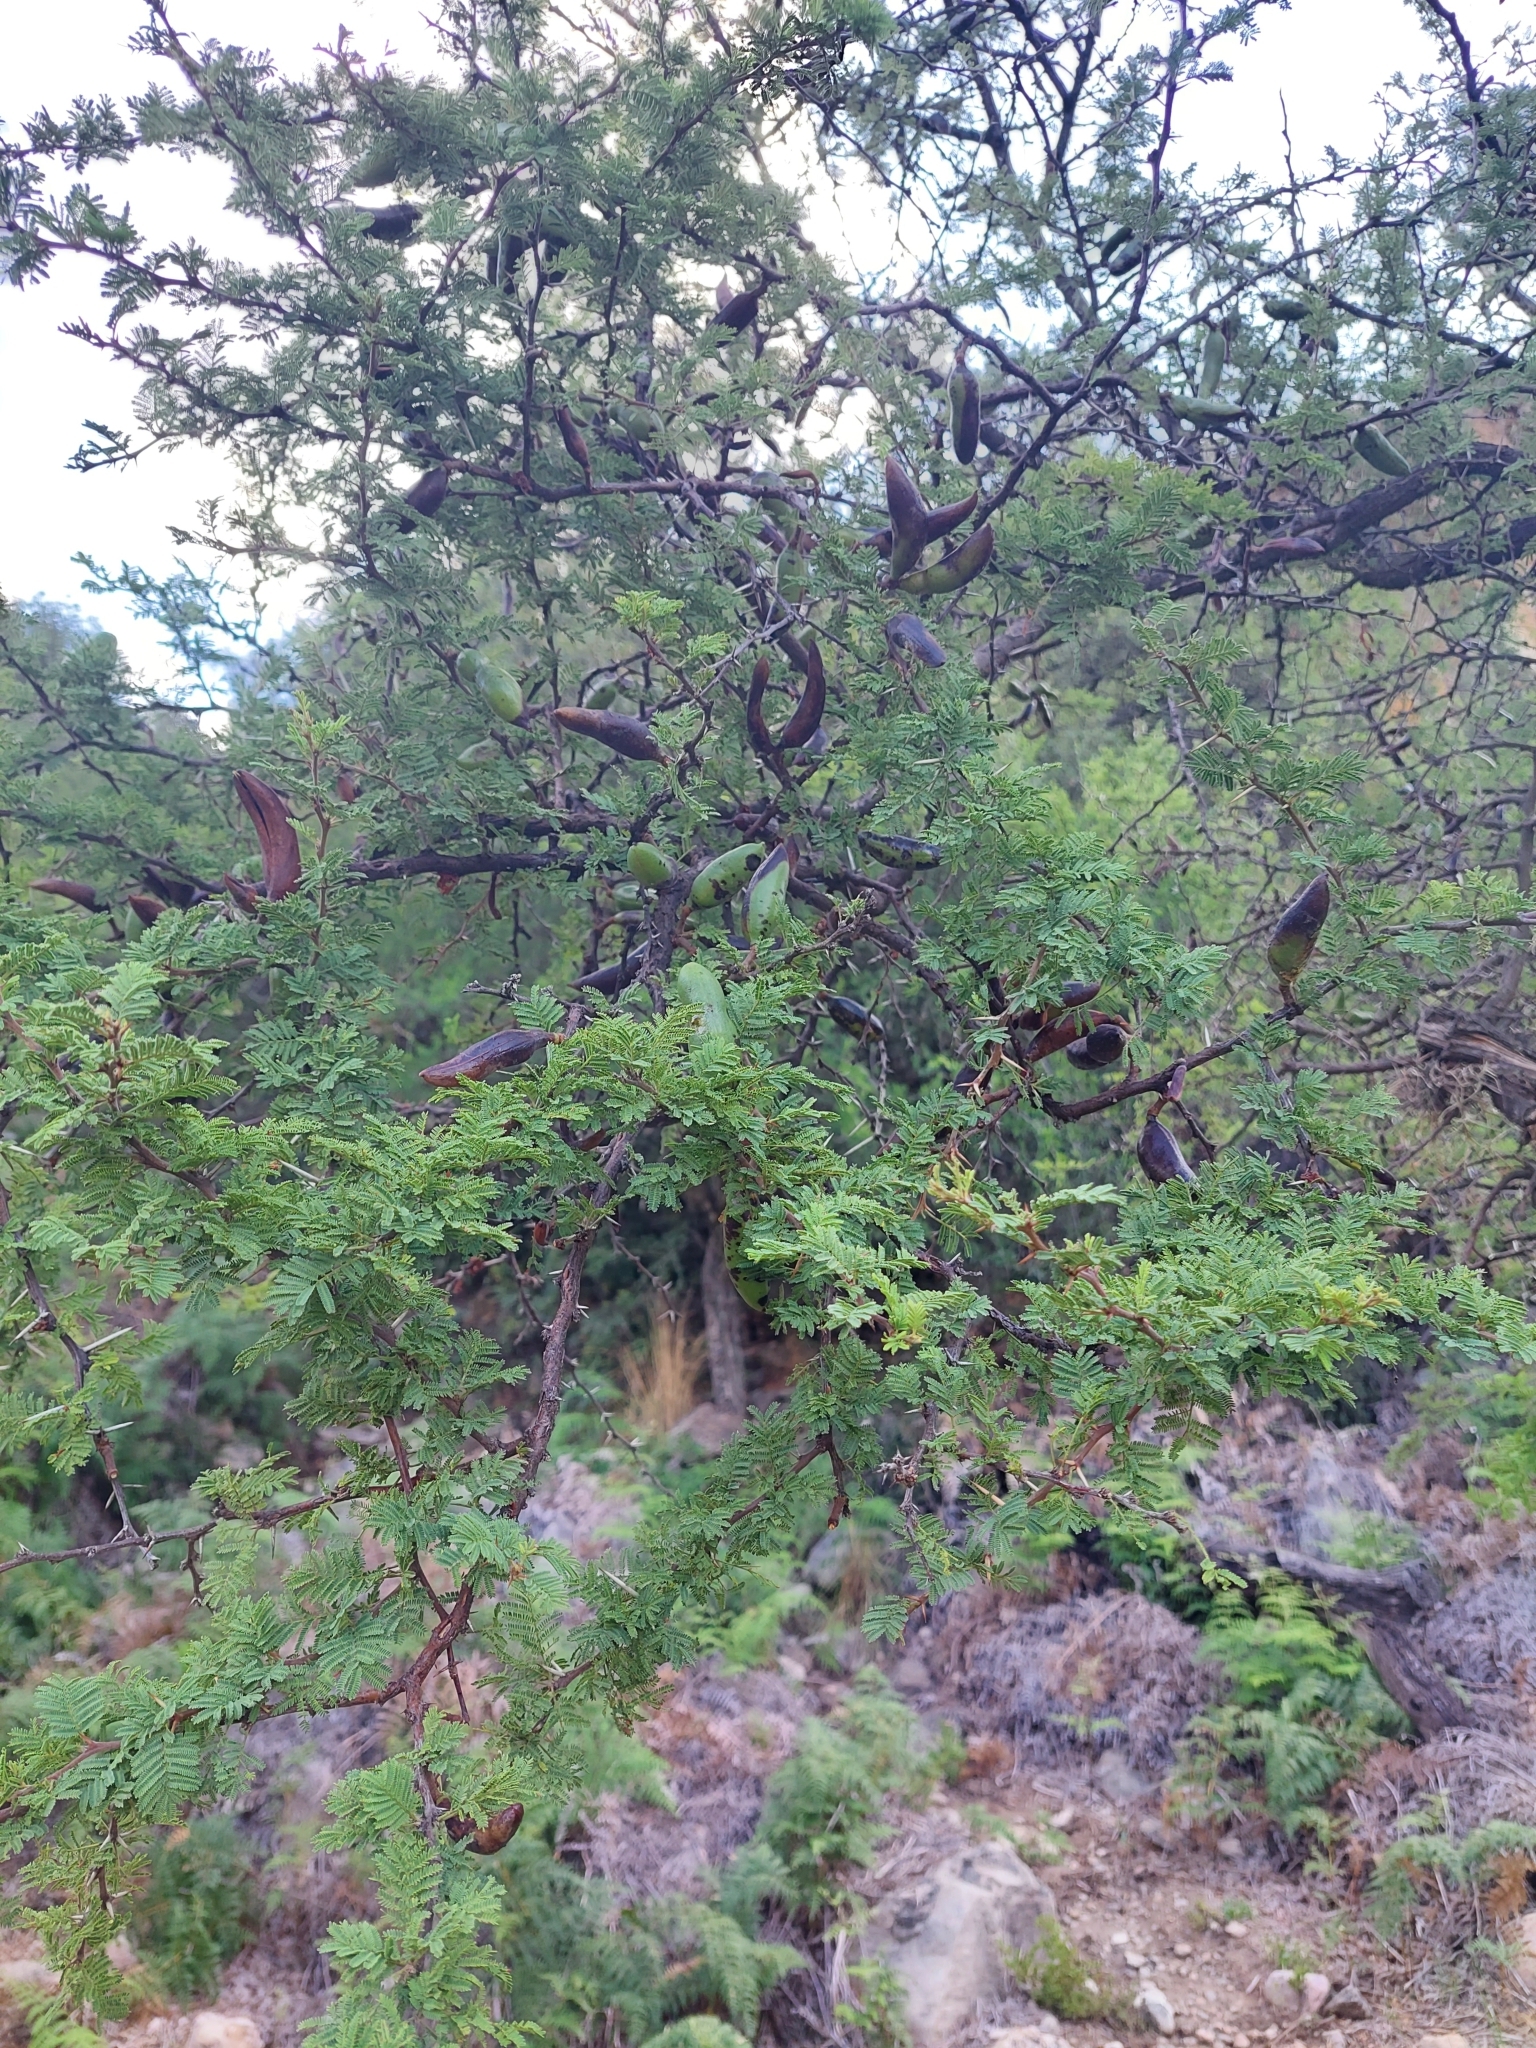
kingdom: Plantae
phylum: Tracheophyta
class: Magnoliopsida
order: Fabales
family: Fabaceae
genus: Vachellia
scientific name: Vachellia caven
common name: Roman cassie
